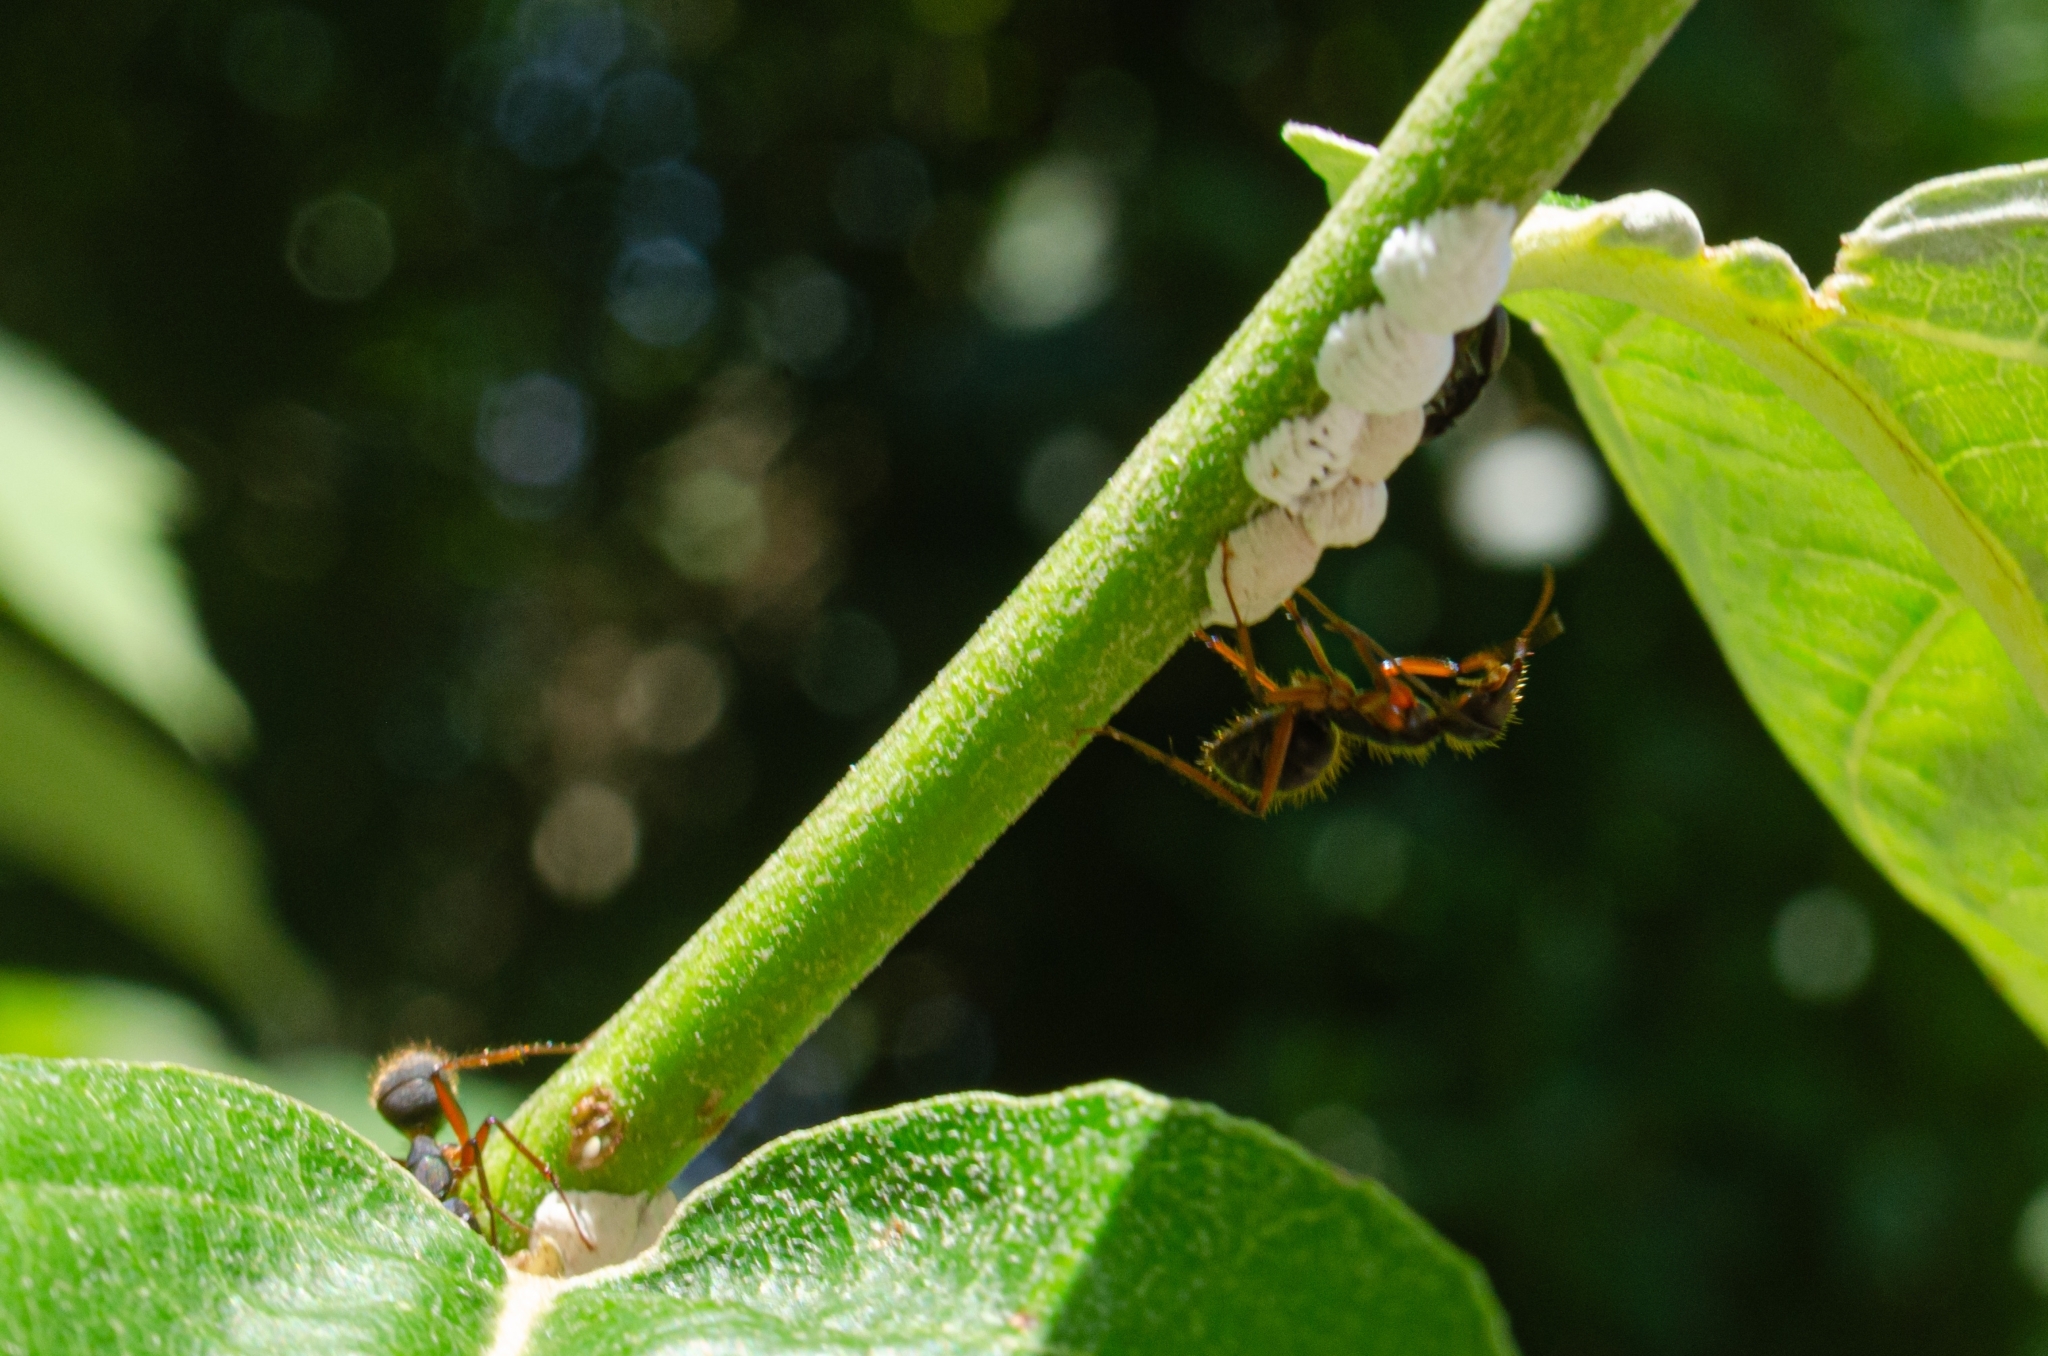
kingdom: Animalia
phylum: Arthropoda
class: Insecta
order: Hymenoptera
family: Formicidae
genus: Camponotus
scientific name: Camponotus rufipes
